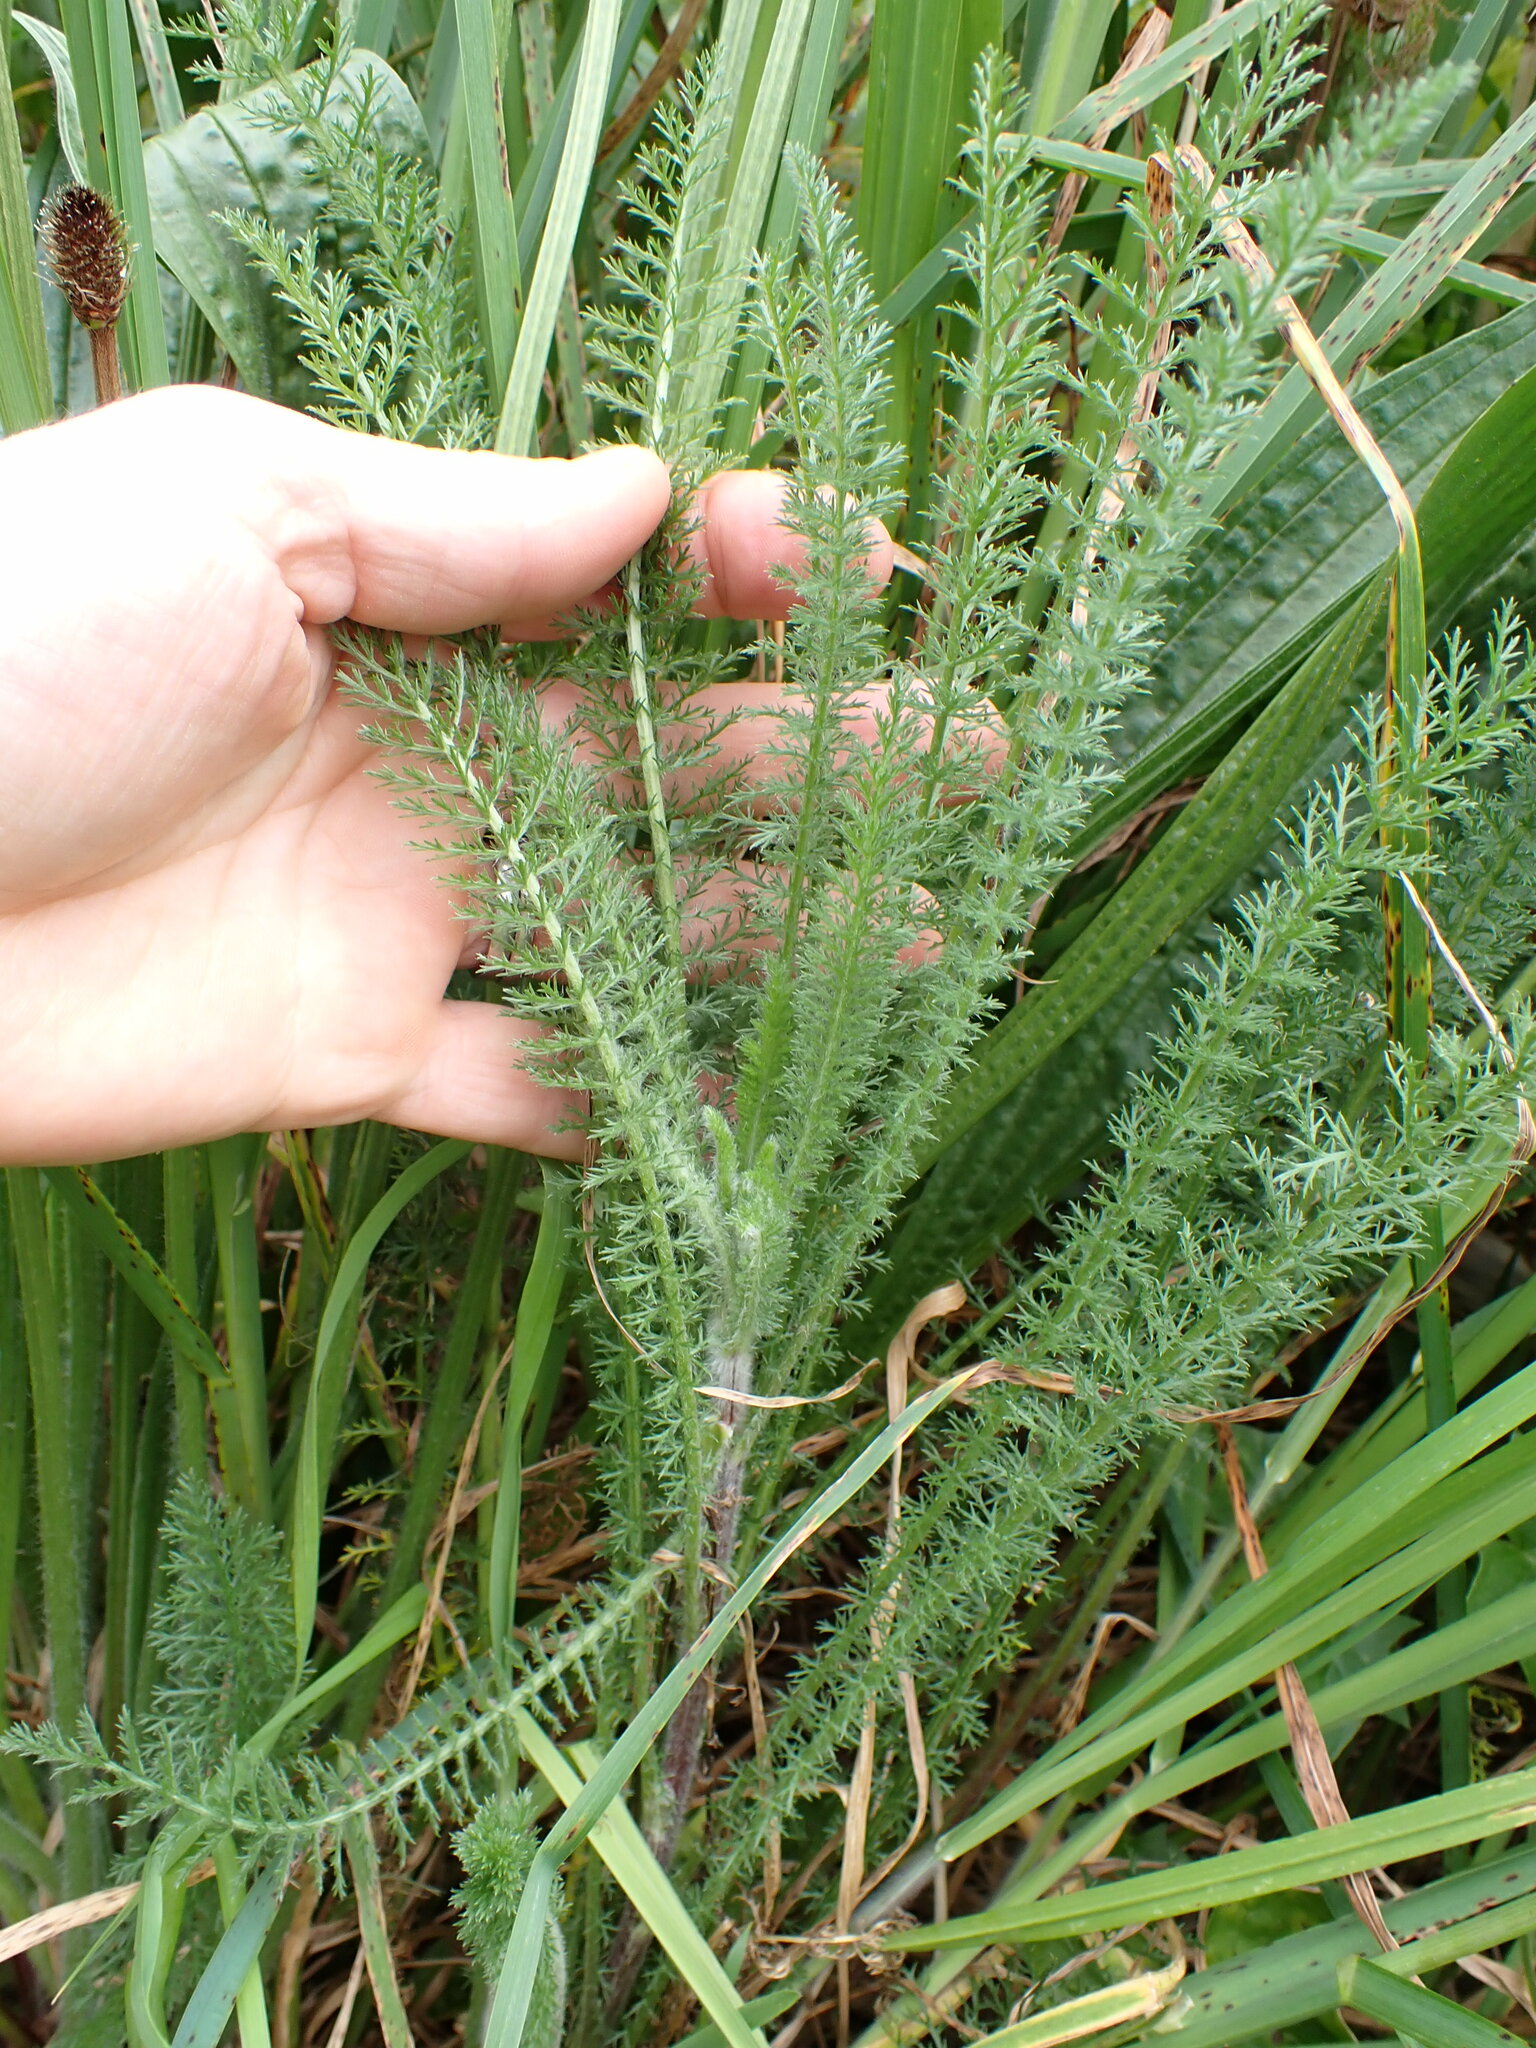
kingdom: Plantae
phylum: Tracheophyta
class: Magnoliopsida
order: Asterales
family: Asteraceae
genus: Achillea
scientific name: Achillea millefolium
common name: Yarrow
